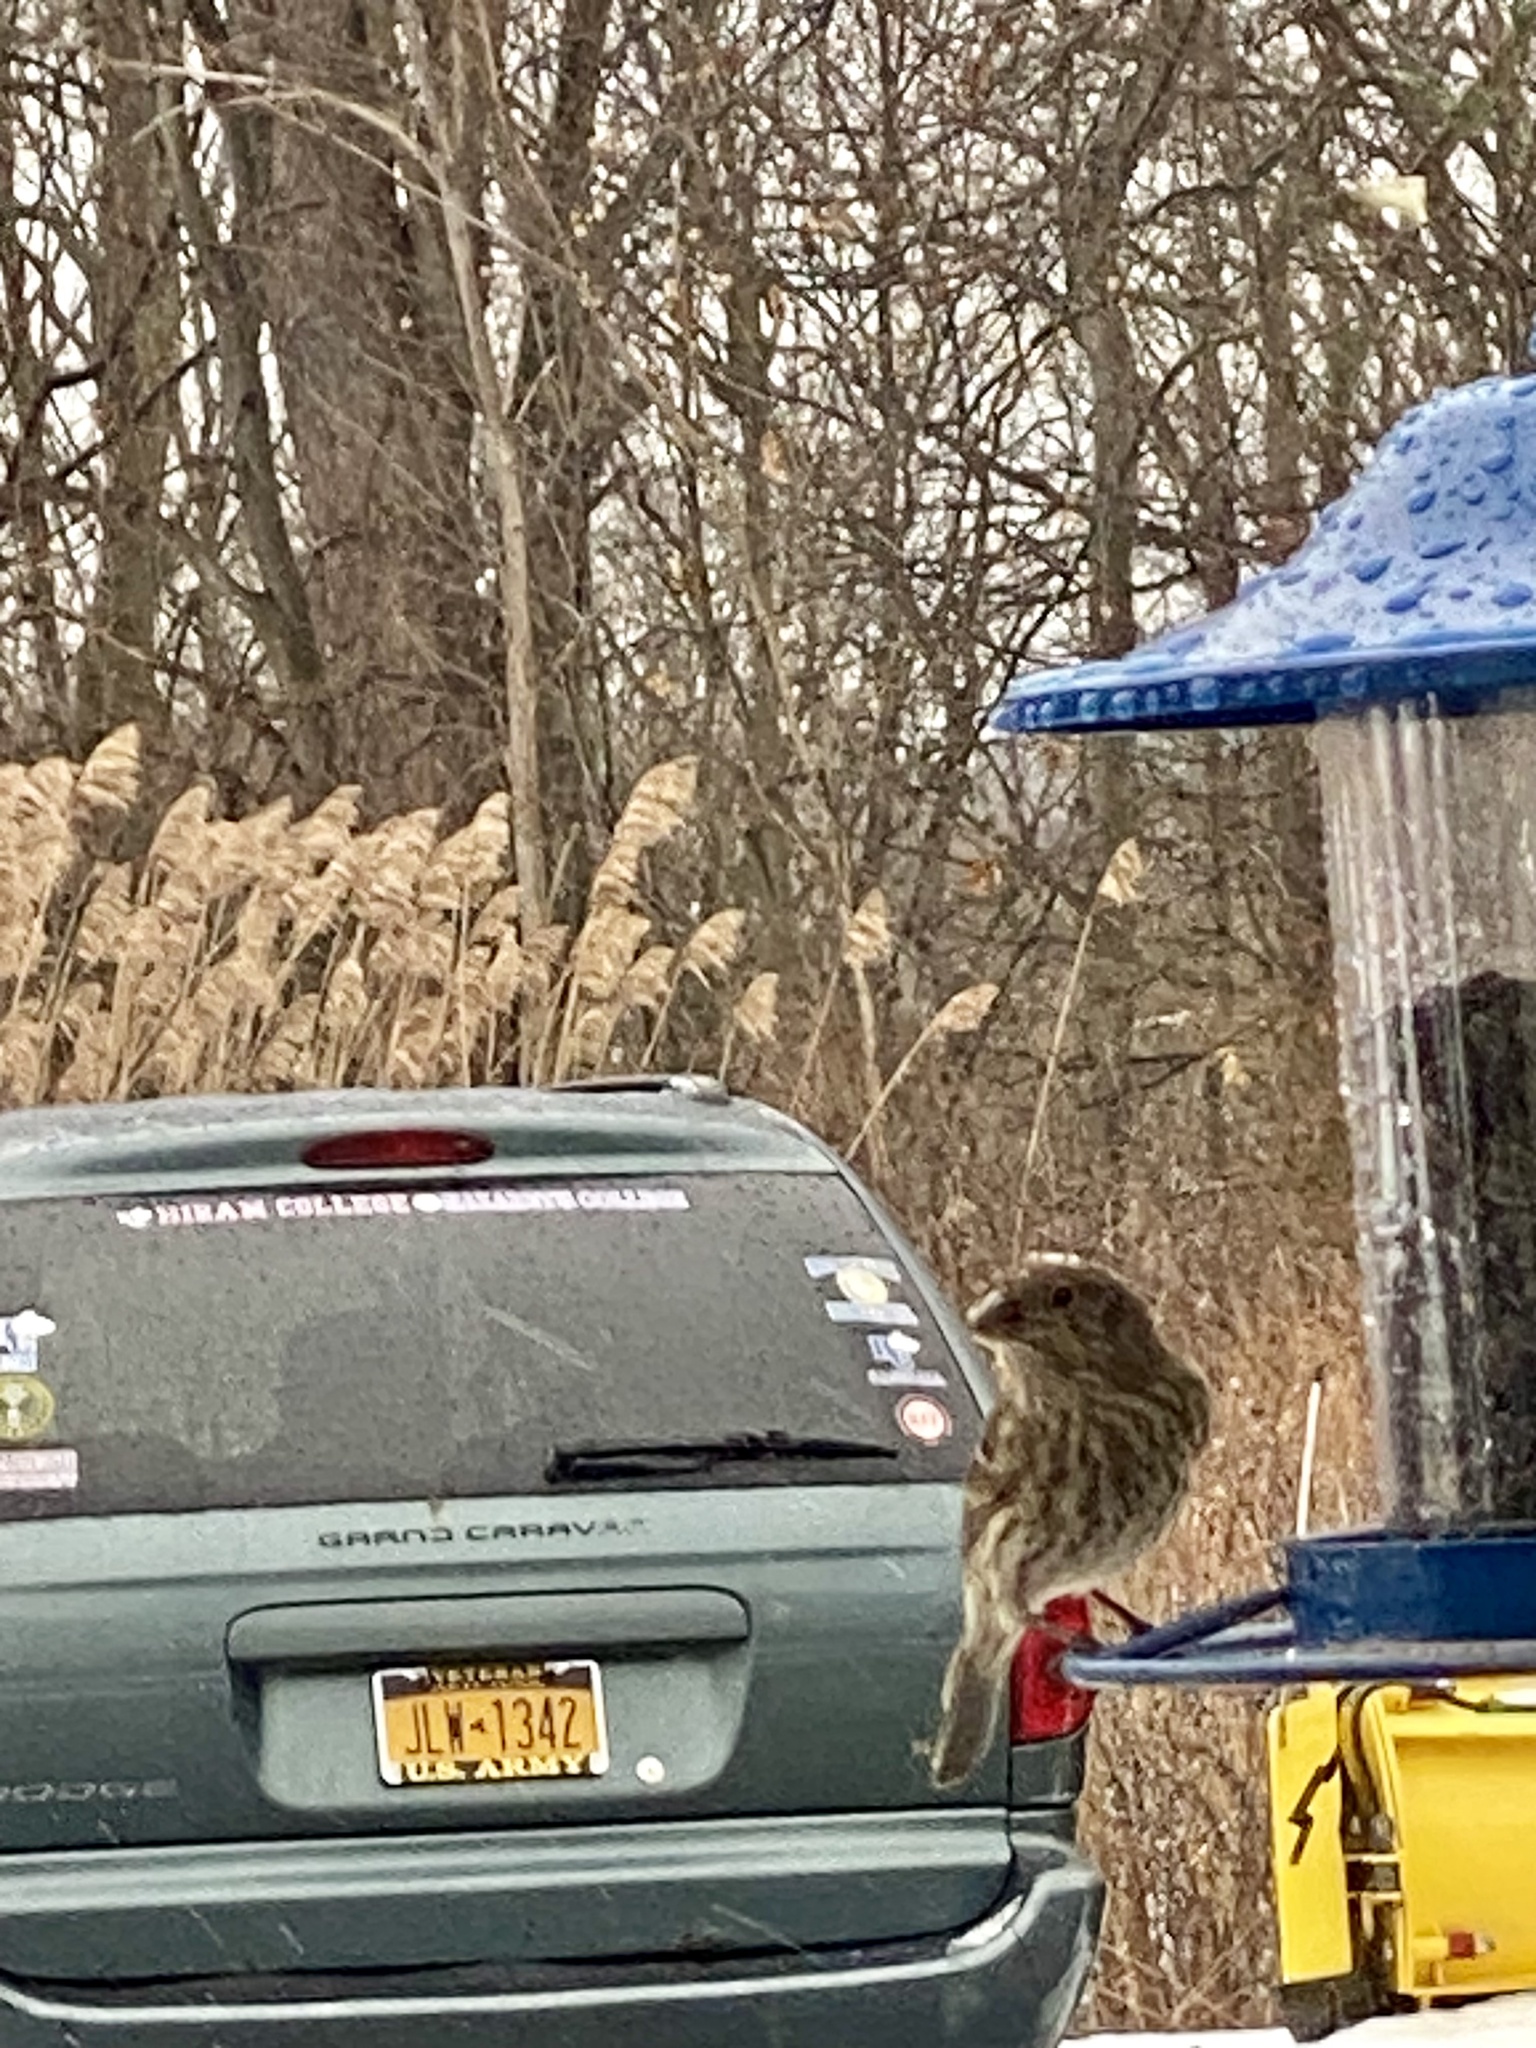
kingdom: Animalia
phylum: Chordata
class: Aves
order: Passeriformes
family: Fringillidae
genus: Haemorhous
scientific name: Haemorhous mexicanus
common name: House finch
